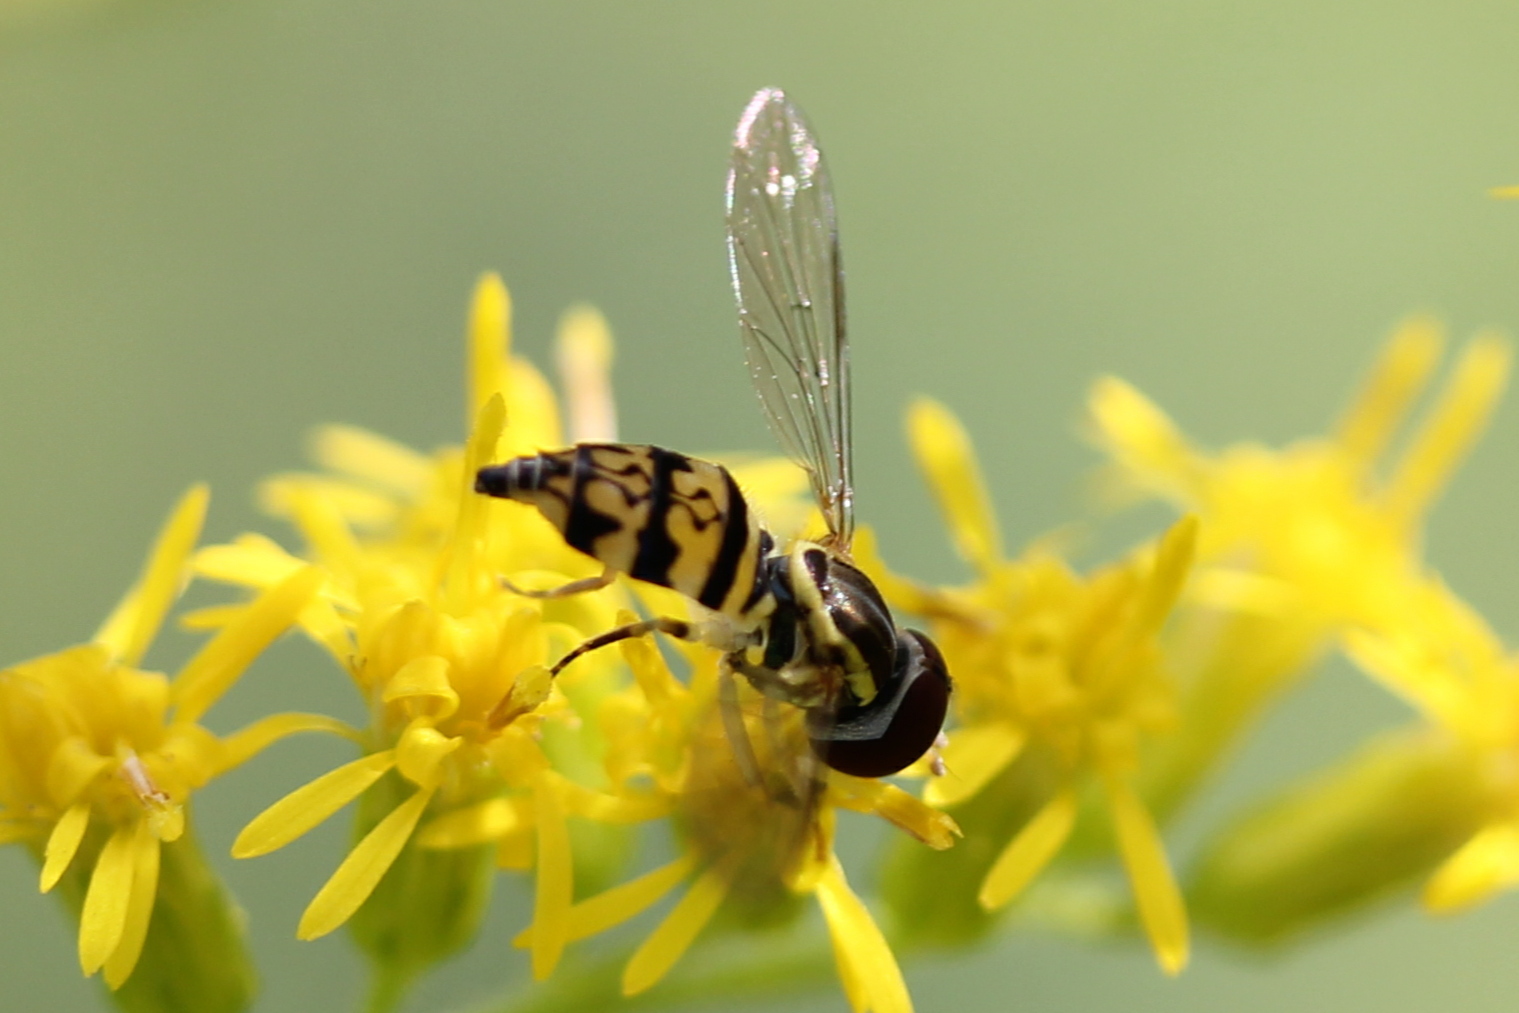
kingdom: Animalia
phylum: Arthropoda
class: Insecta
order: Diptera
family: Syrphidae
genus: Toxomerus
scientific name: Toxomerus geminatus
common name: Eastern calligrapher
